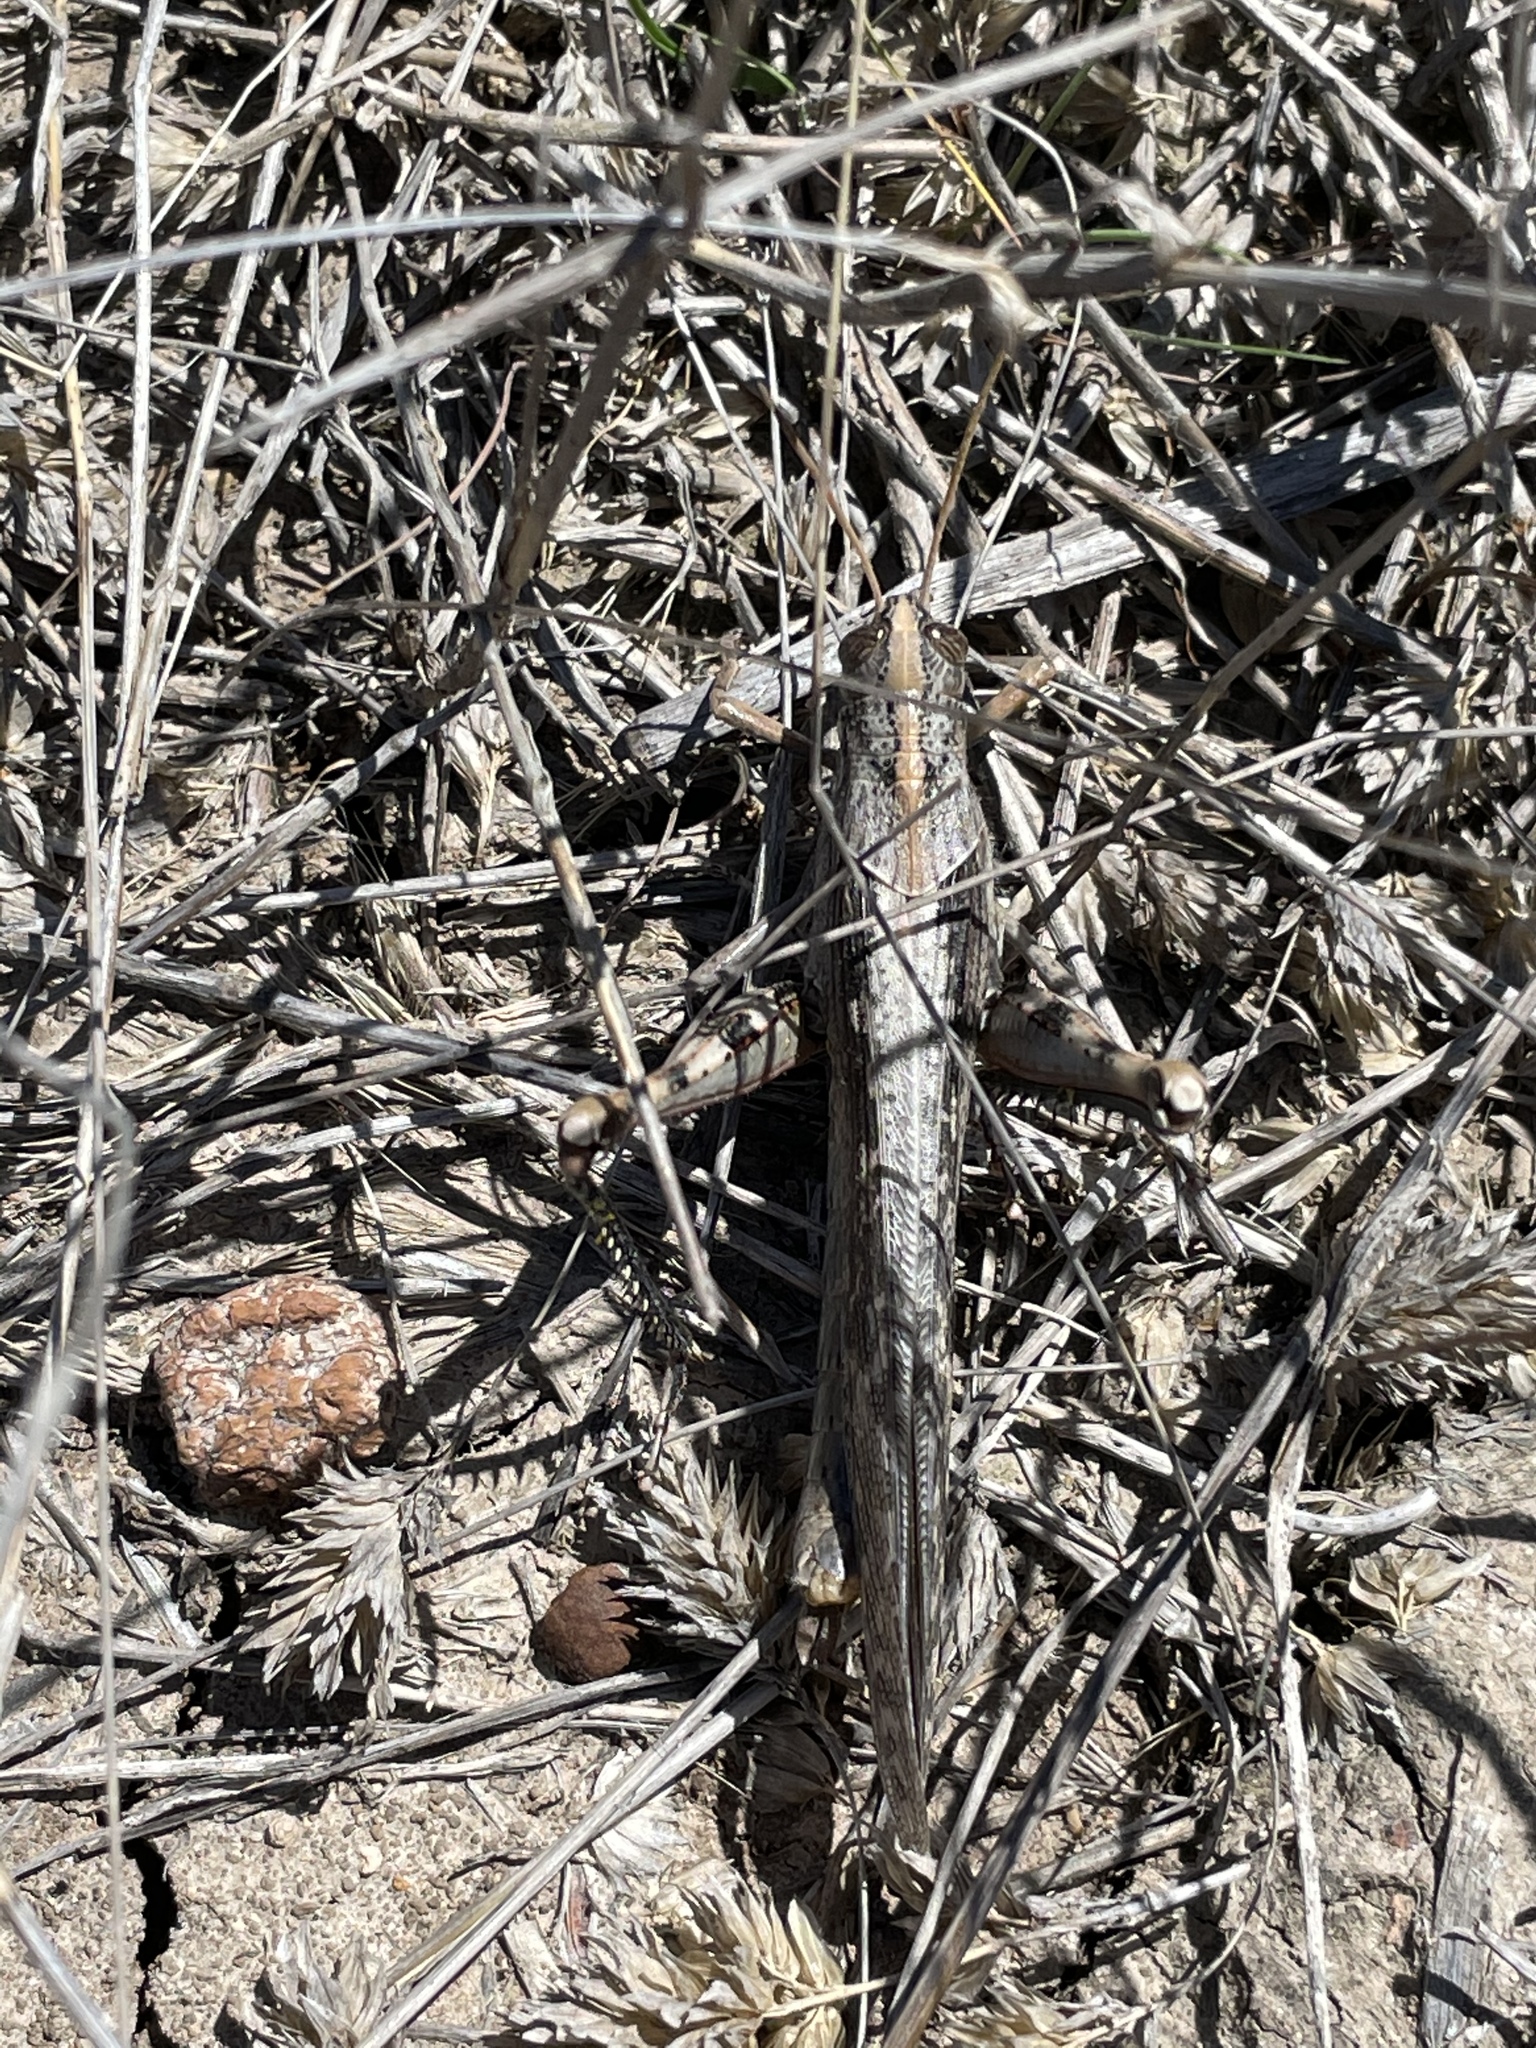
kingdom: Animalia
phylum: Arthropoda
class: Insecta
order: Orthoptera
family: Acrididae
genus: Schistocerca
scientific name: Schistocerca nitens
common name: Vagrant grasshopper
